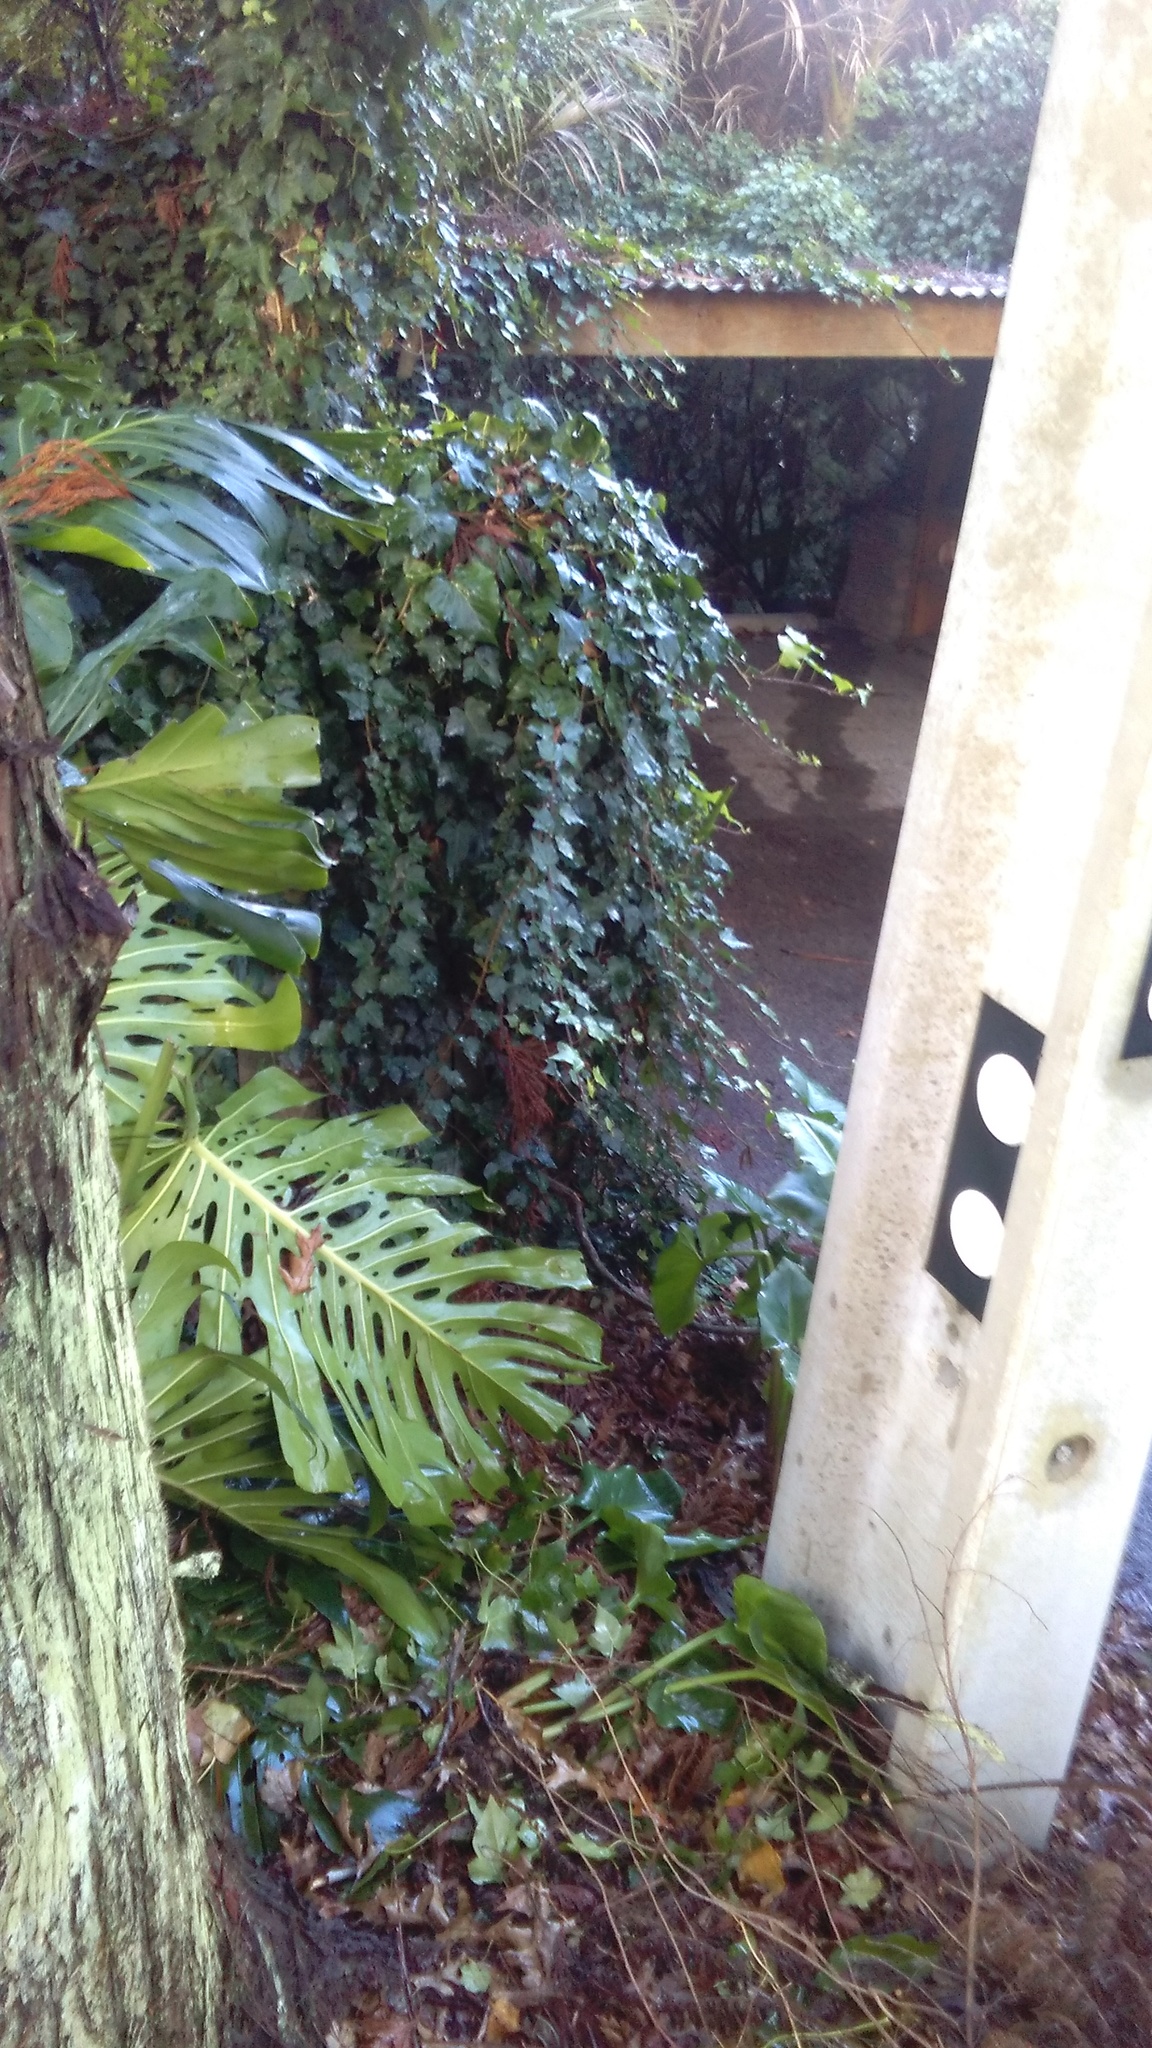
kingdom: Plantae
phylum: Tracheophyta
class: Liliopsida
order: Alismatales
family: Araceae
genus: Monstera
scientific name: Monstera deliciosa
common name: Cut-leaf-philodendron
